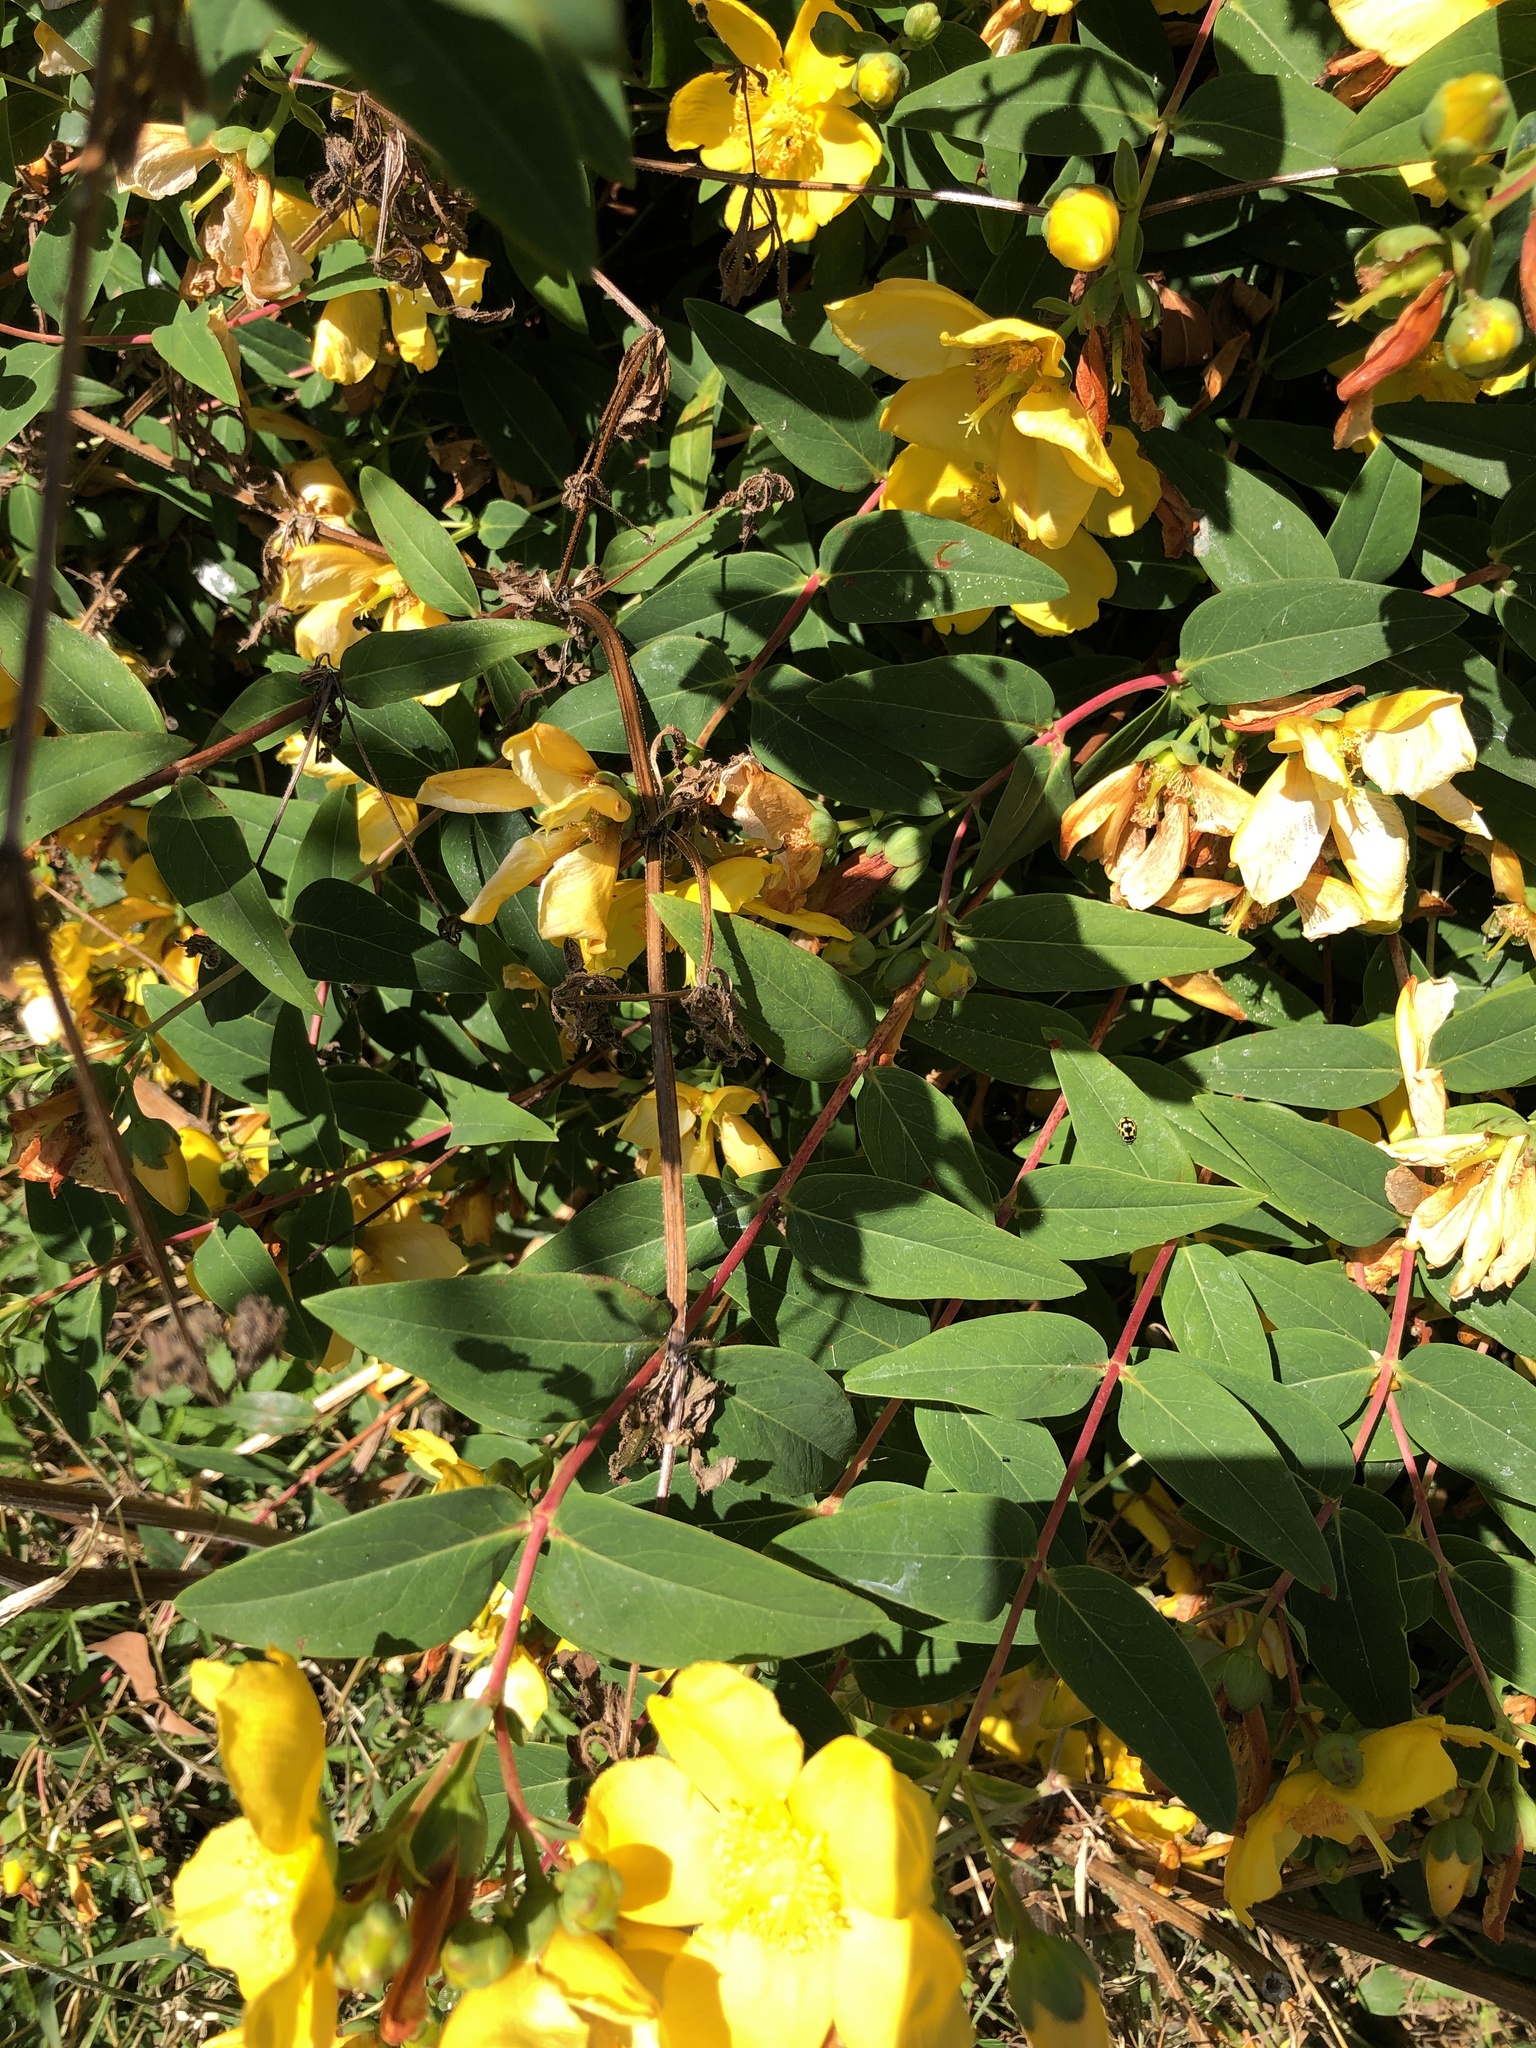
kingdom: Plantae
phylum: Tracheophyta
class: Magnoliopsida
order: Malpighiales
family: Hypericaceae
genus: Hypericum
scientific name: Hypericum hidcoteense
